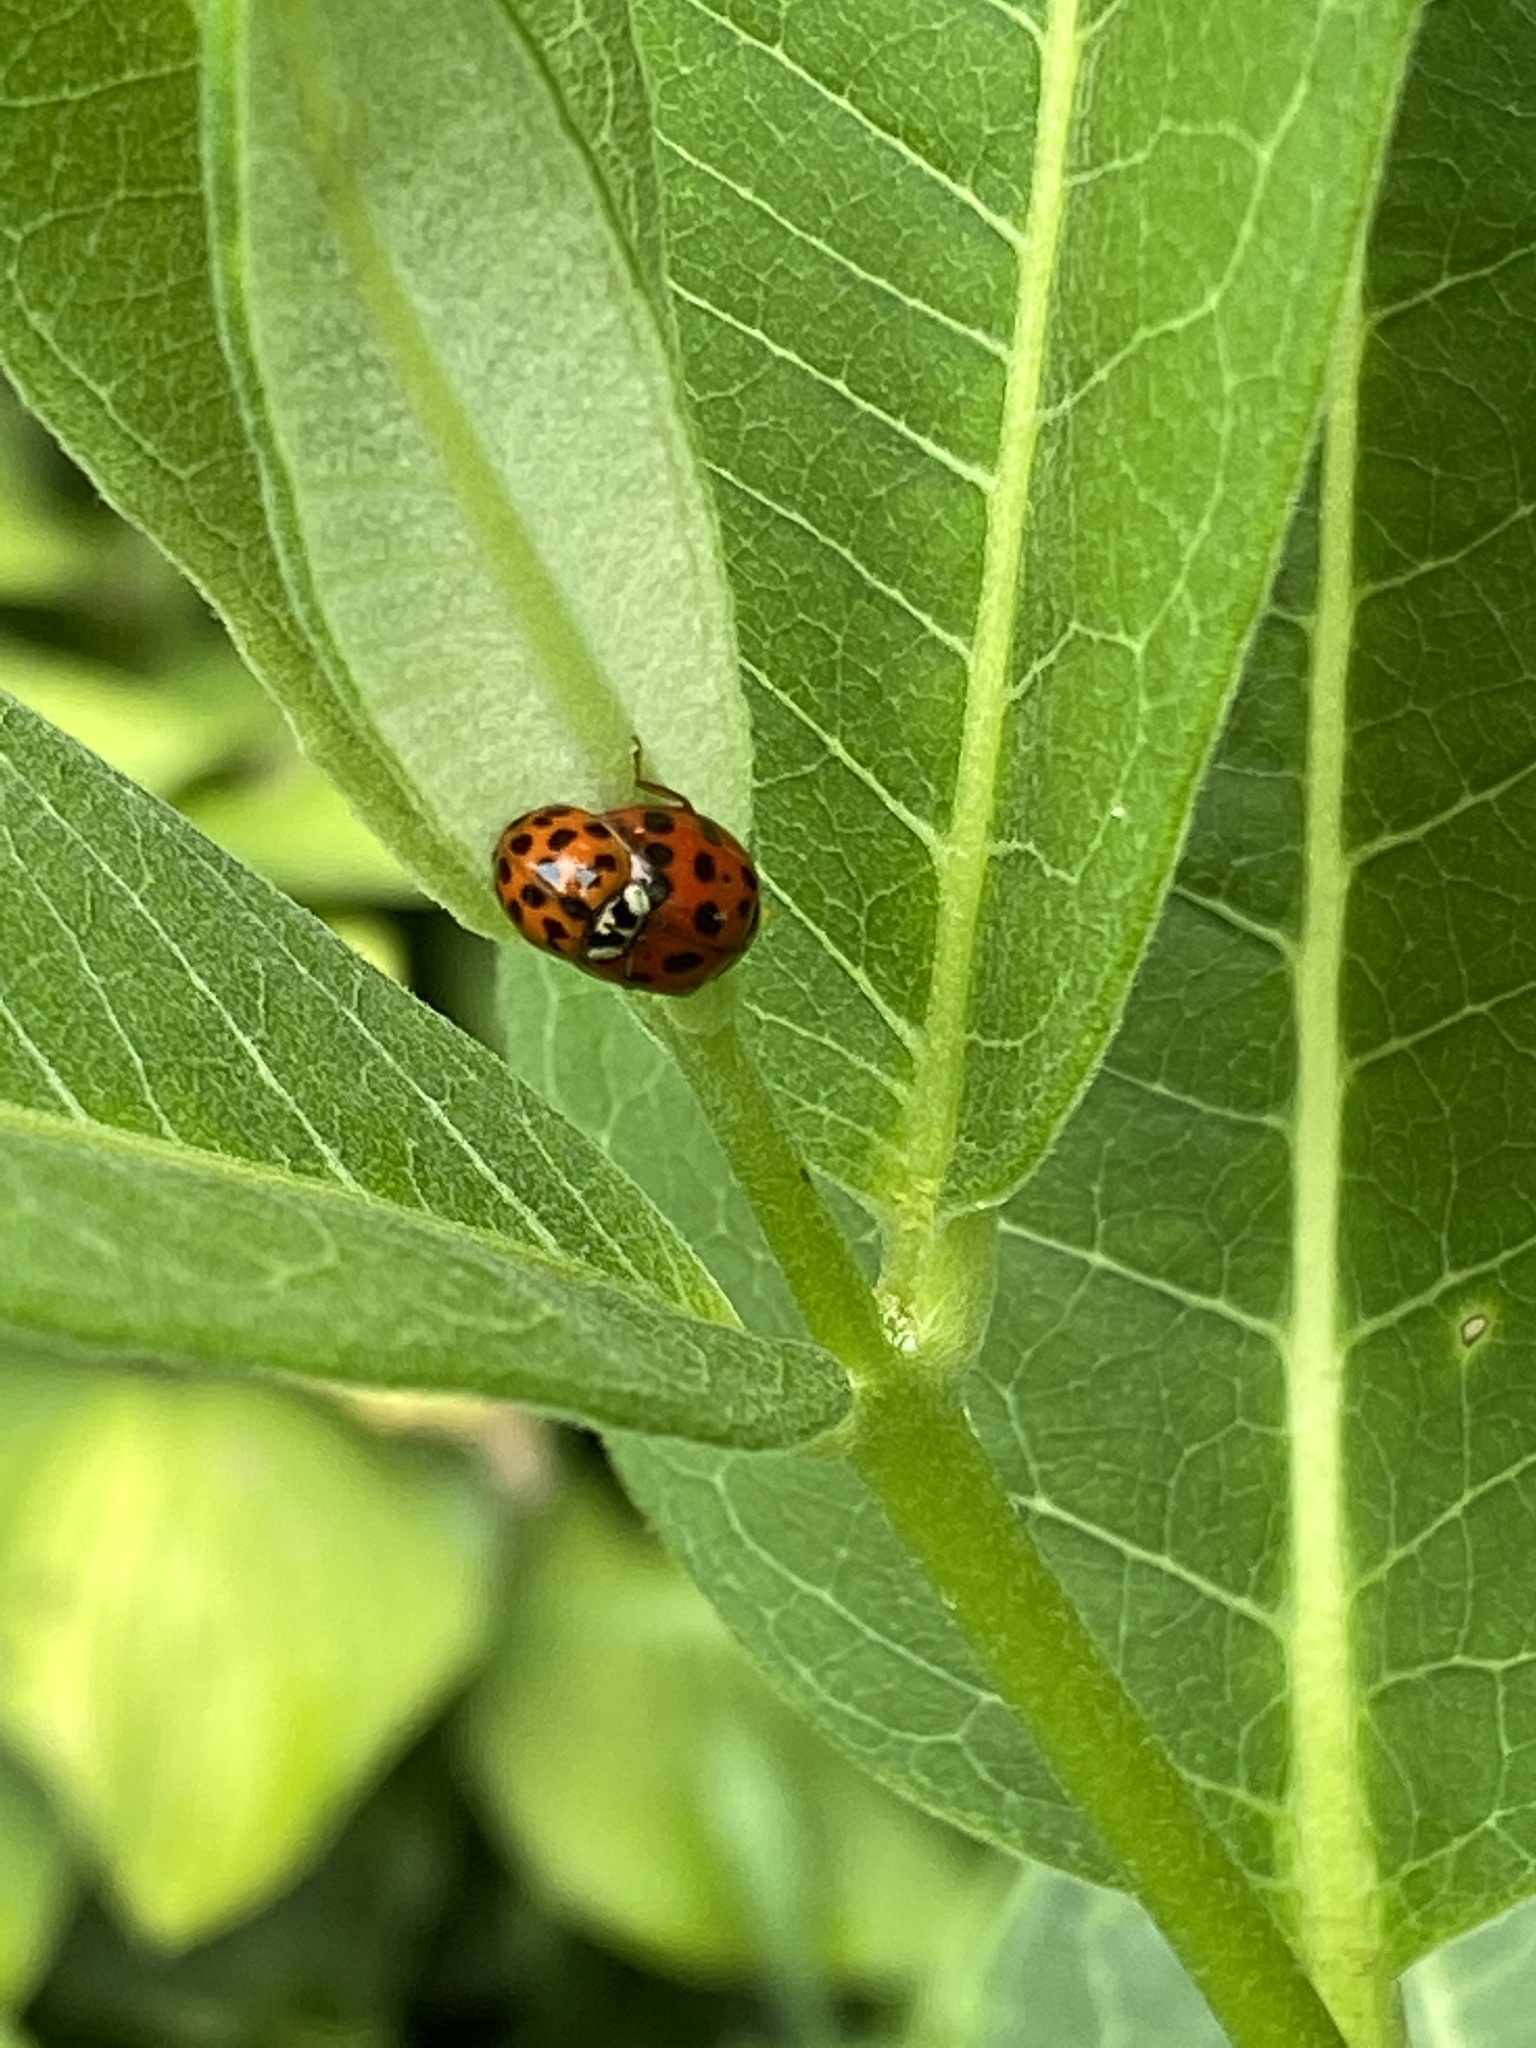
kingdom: Animalia
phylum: Arthropoda
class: Insecta
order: Coleoptera
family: Coccinellidae
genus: Harmonia
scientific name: Harmonia axyridis
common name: Harlequin ladybird
